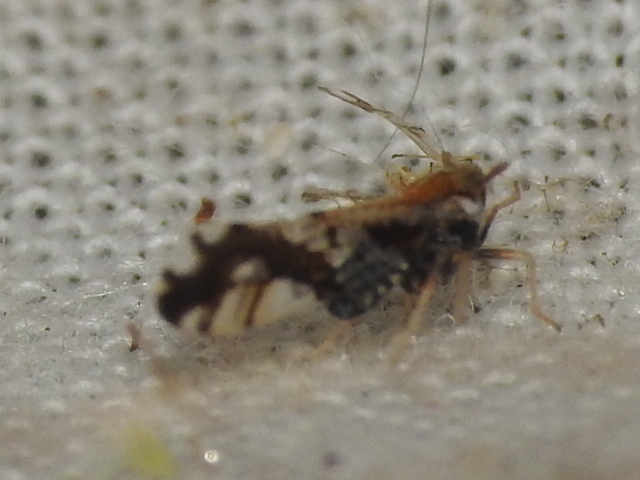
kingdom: Animalia
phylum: Arthropoda
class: Insecta
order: Hemiptera
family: Delphacidae
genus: Liburniella
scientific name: Liburniella ornata
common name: Ornate planthopper
